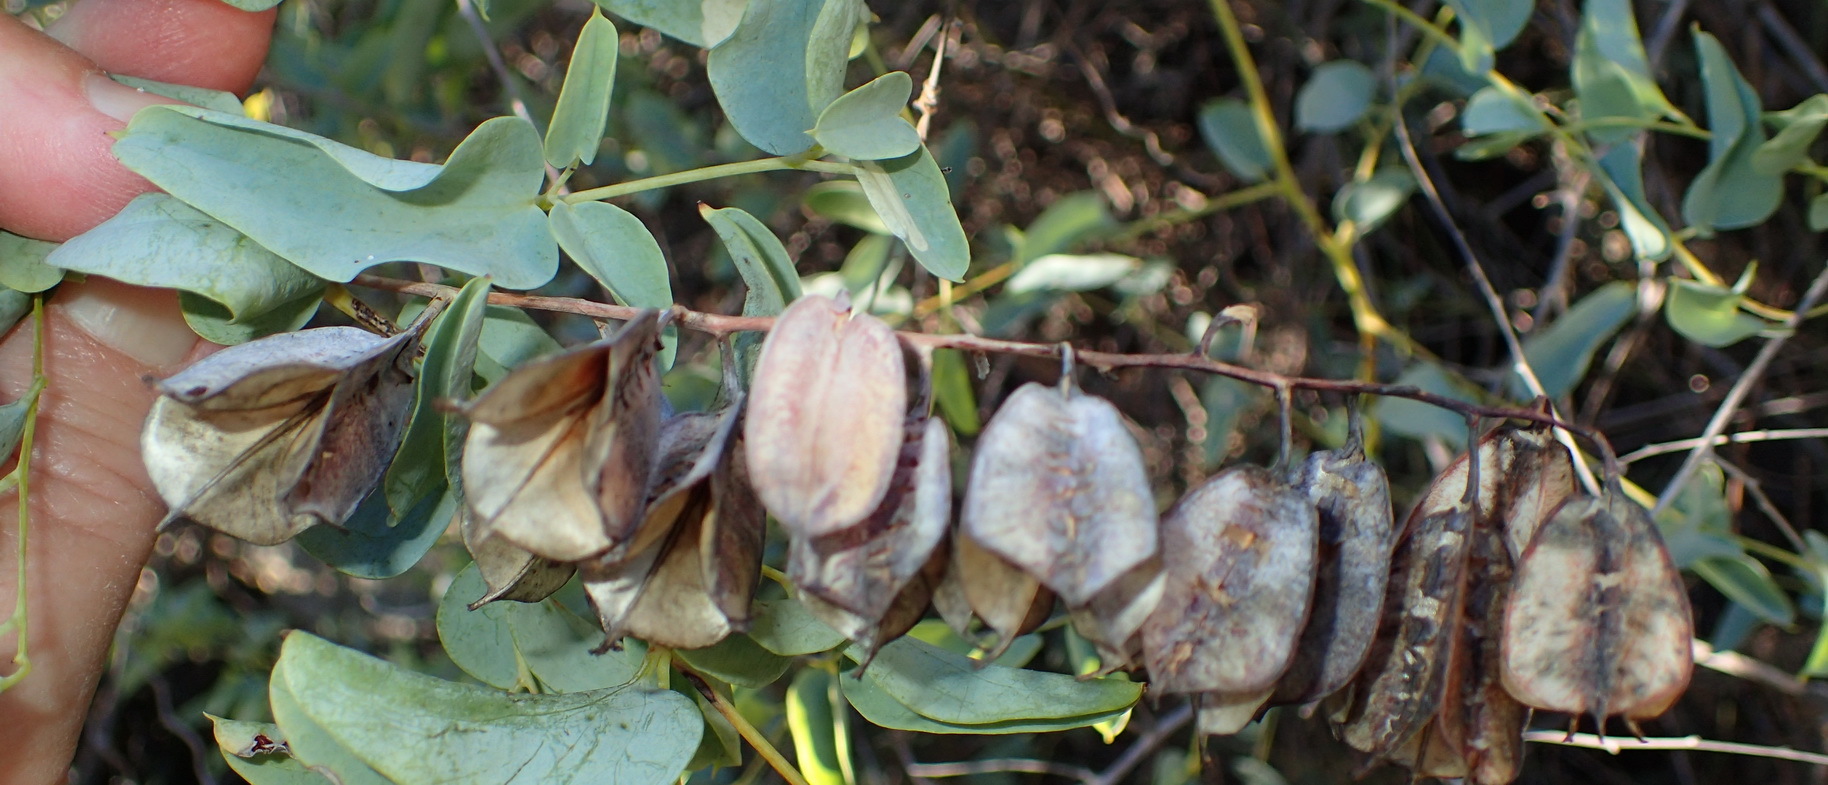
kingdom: Plantae
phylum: Tracheophyta
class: Liliopsida
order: Dioscoreales
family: Dioscoreaceae
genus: Dioscorea
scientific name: Dioscorea hemicrypta
